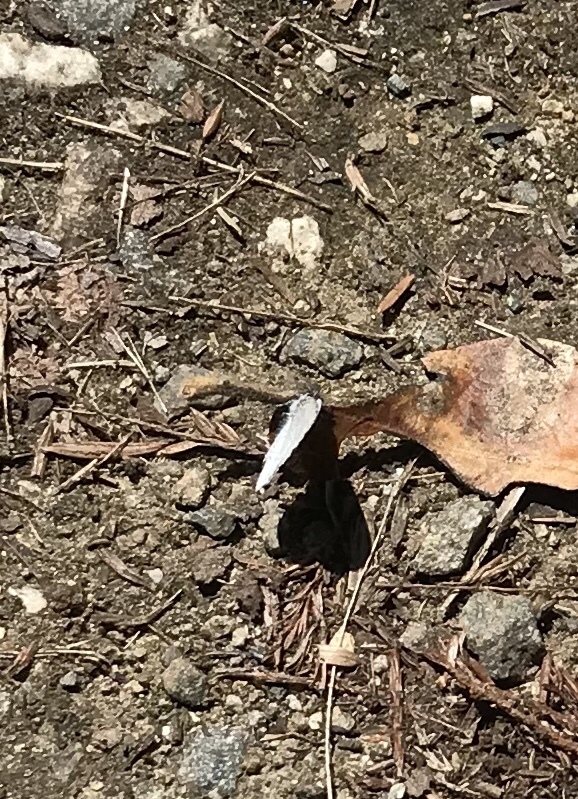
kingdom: Animalia
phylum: Arthropoda
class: Insecta
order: Lepidoptera
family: Lycaenidae
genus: Celastrina
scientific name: Celastrina ladon
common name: Spring azure
